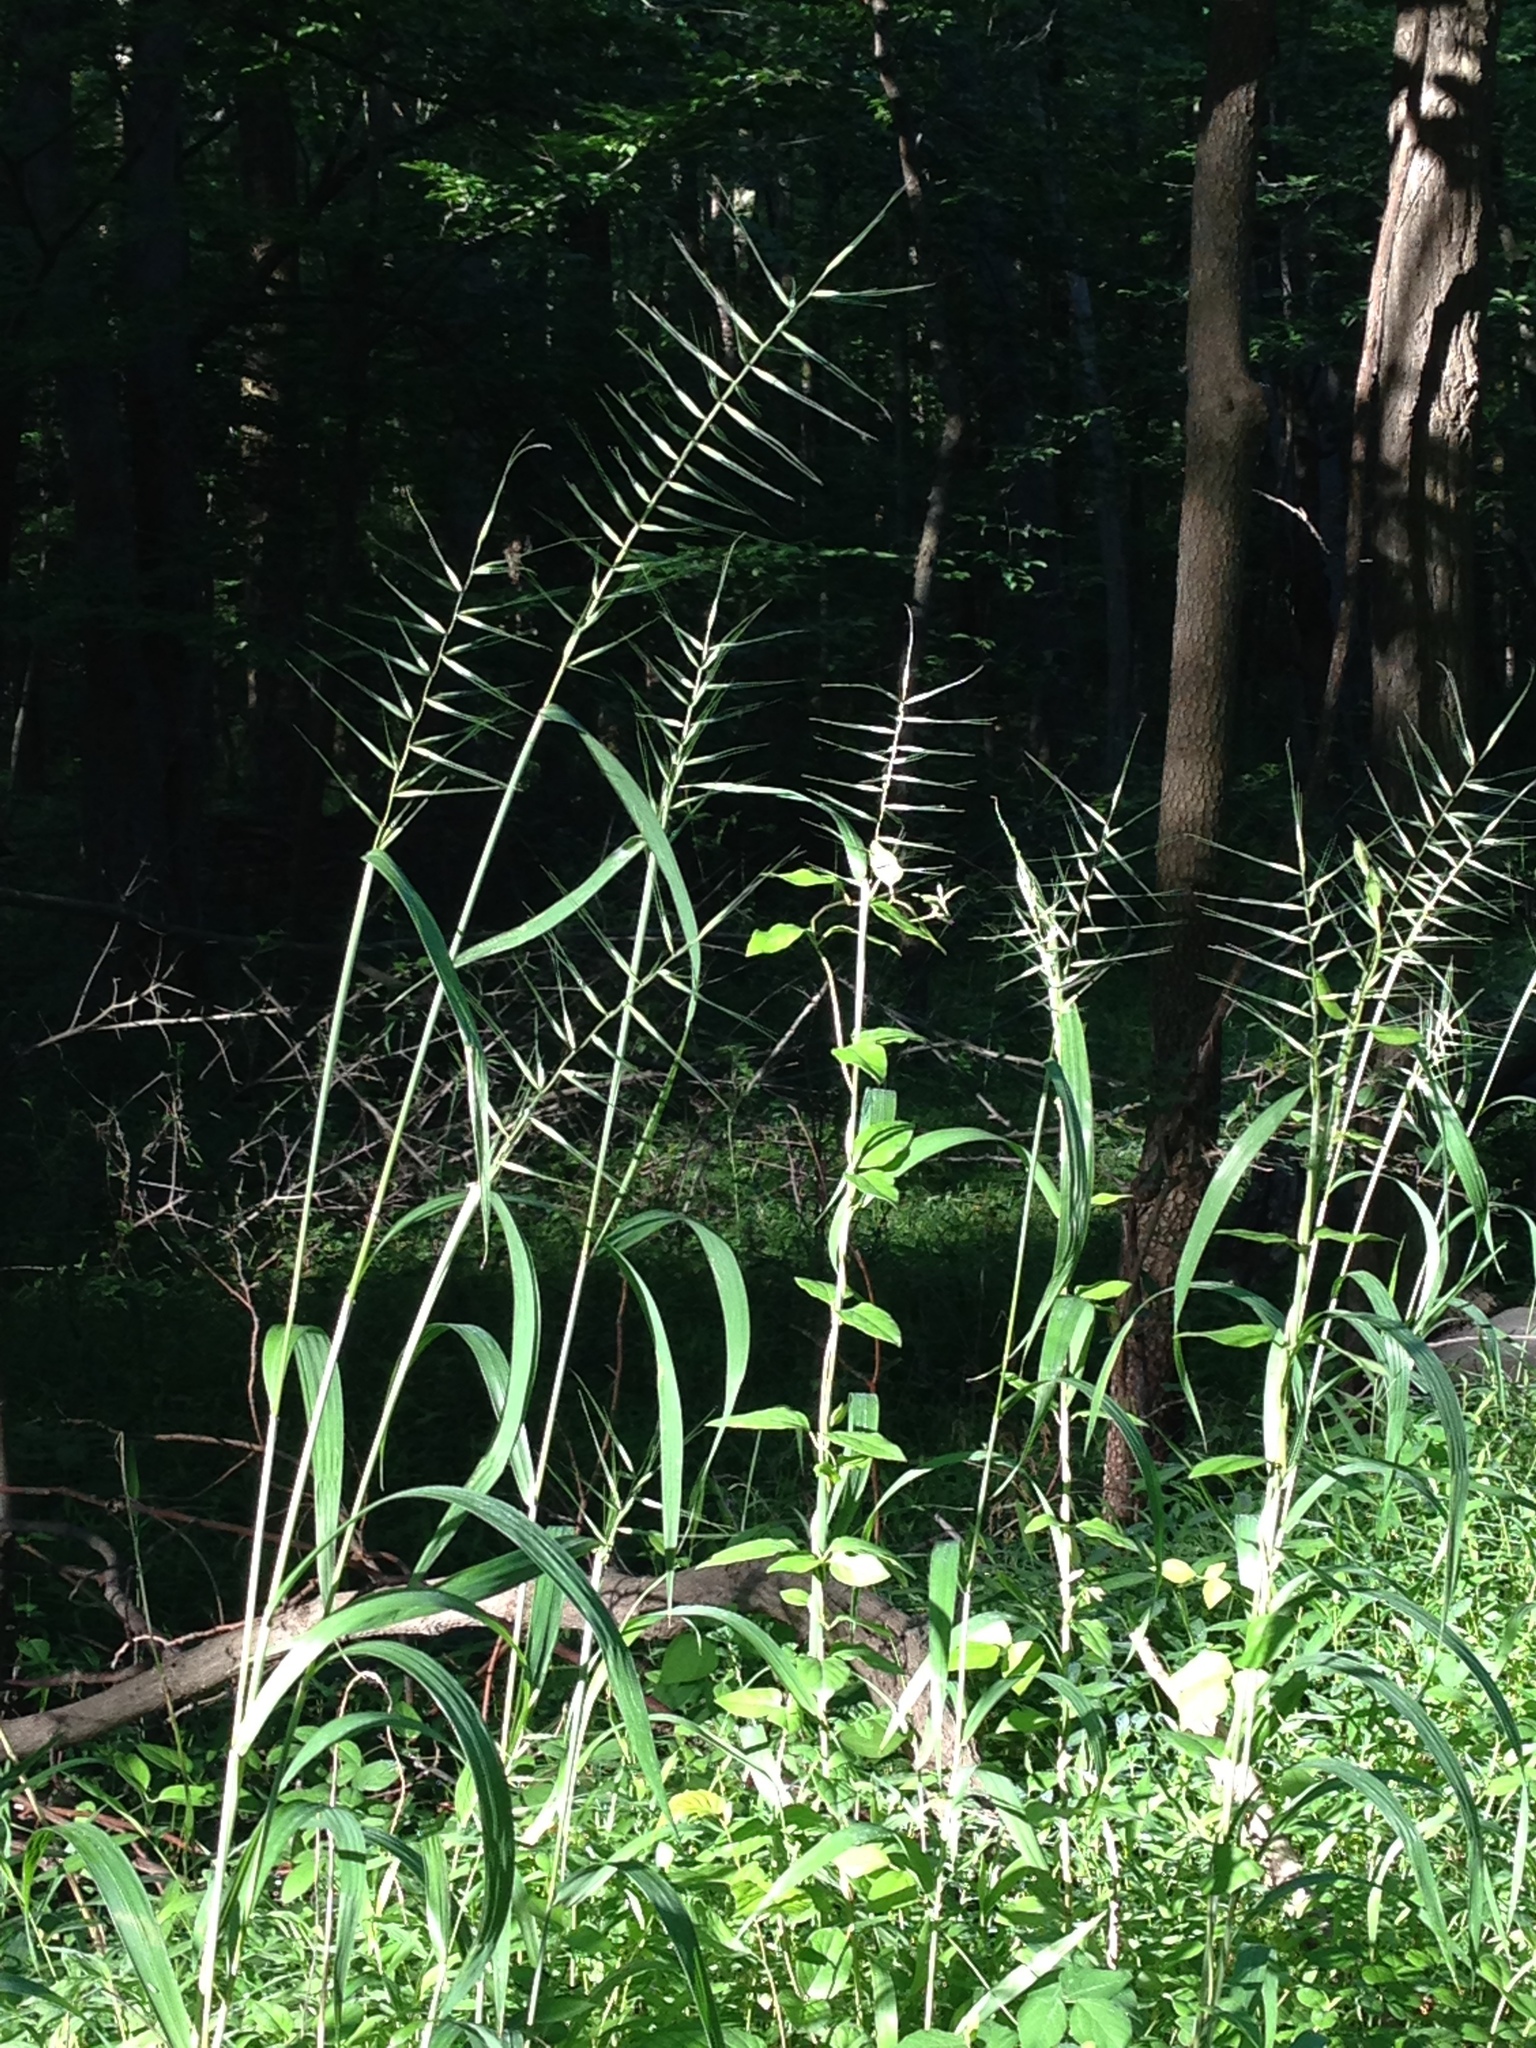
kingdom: Plantae
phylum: Tracheophyta
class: Liliopsida
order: Poales
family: Poaceae
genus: Elymus
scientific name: Elymus hystrix
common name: Bottlebrush grass
